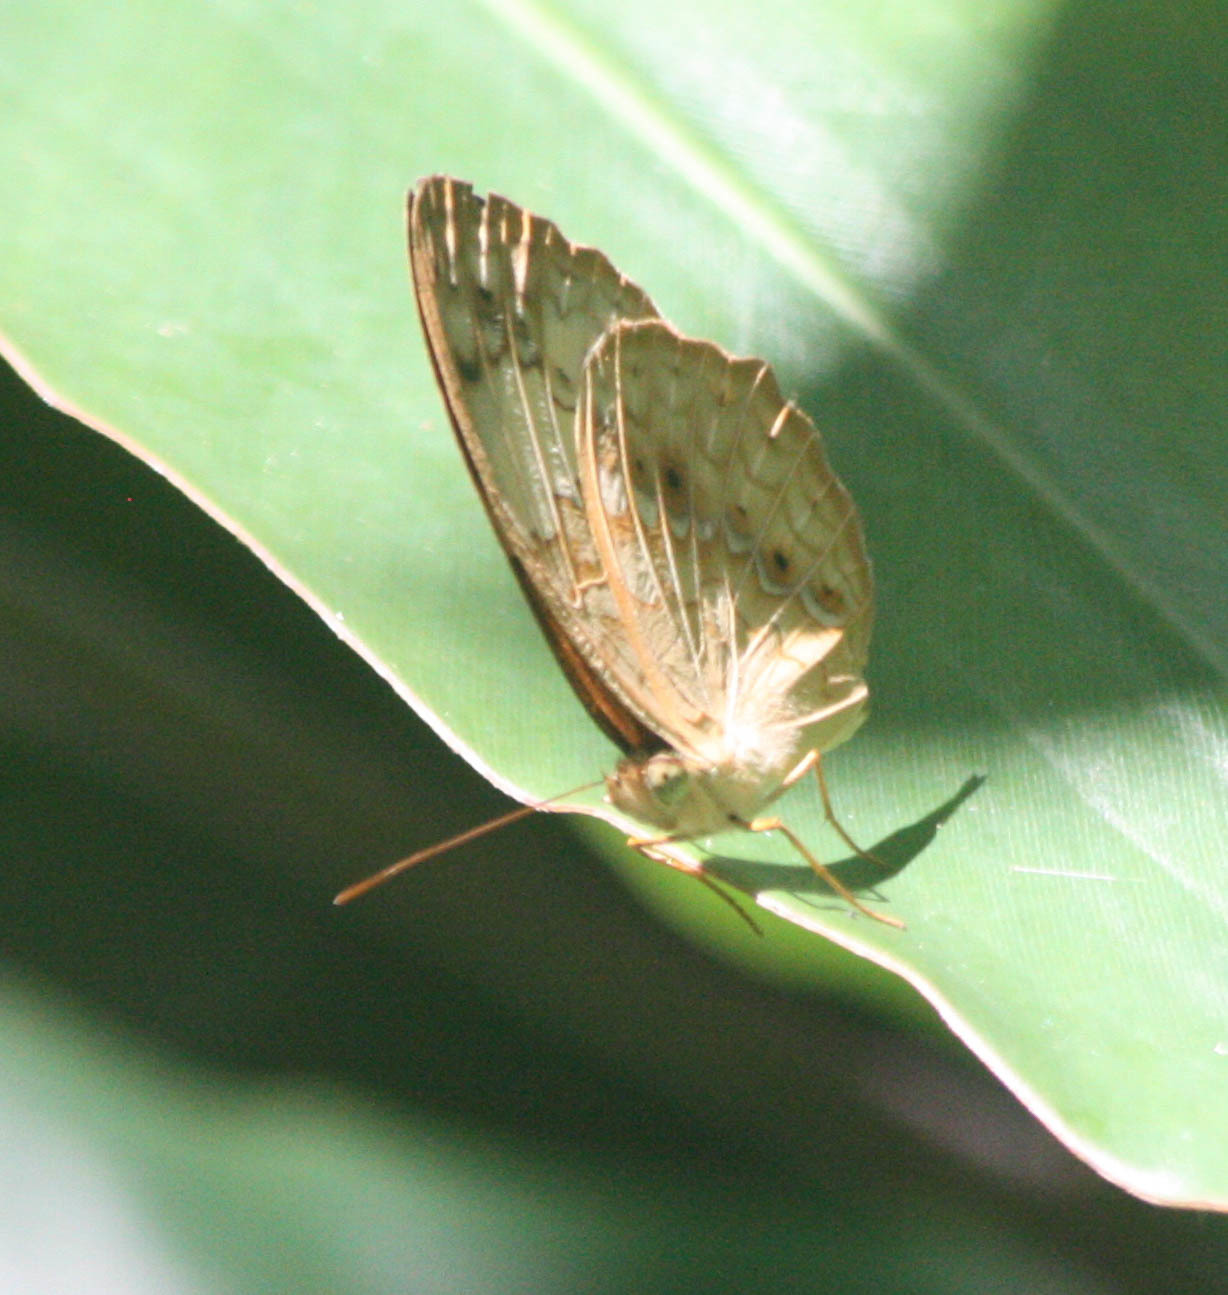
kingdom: Animalia
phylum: Arthropoda
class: Insecta
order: Lepidoptera
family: Nymphalidae
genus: Cupha
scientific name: Cupha erymanthis
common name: Rustic
